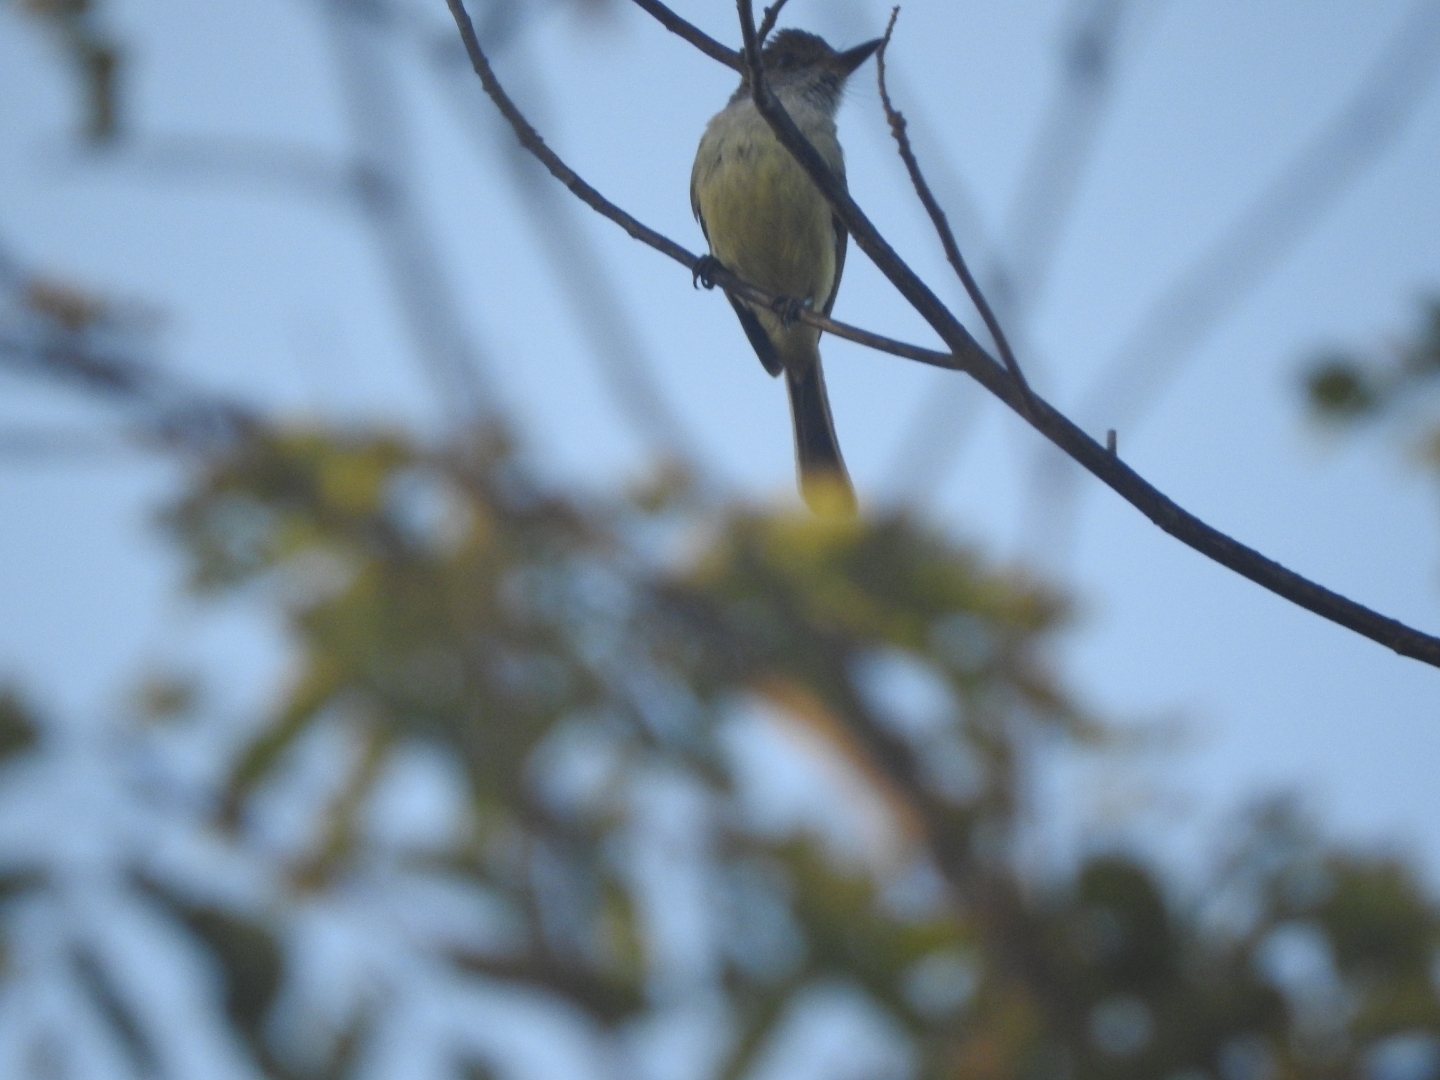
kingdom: Animalia
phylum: Chordata
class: Aves
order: Passeriformes
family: Tyrannidae
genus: Myiarchus
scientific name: Myiarchus tuberculifer
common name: Dusky-capped flycatcher
